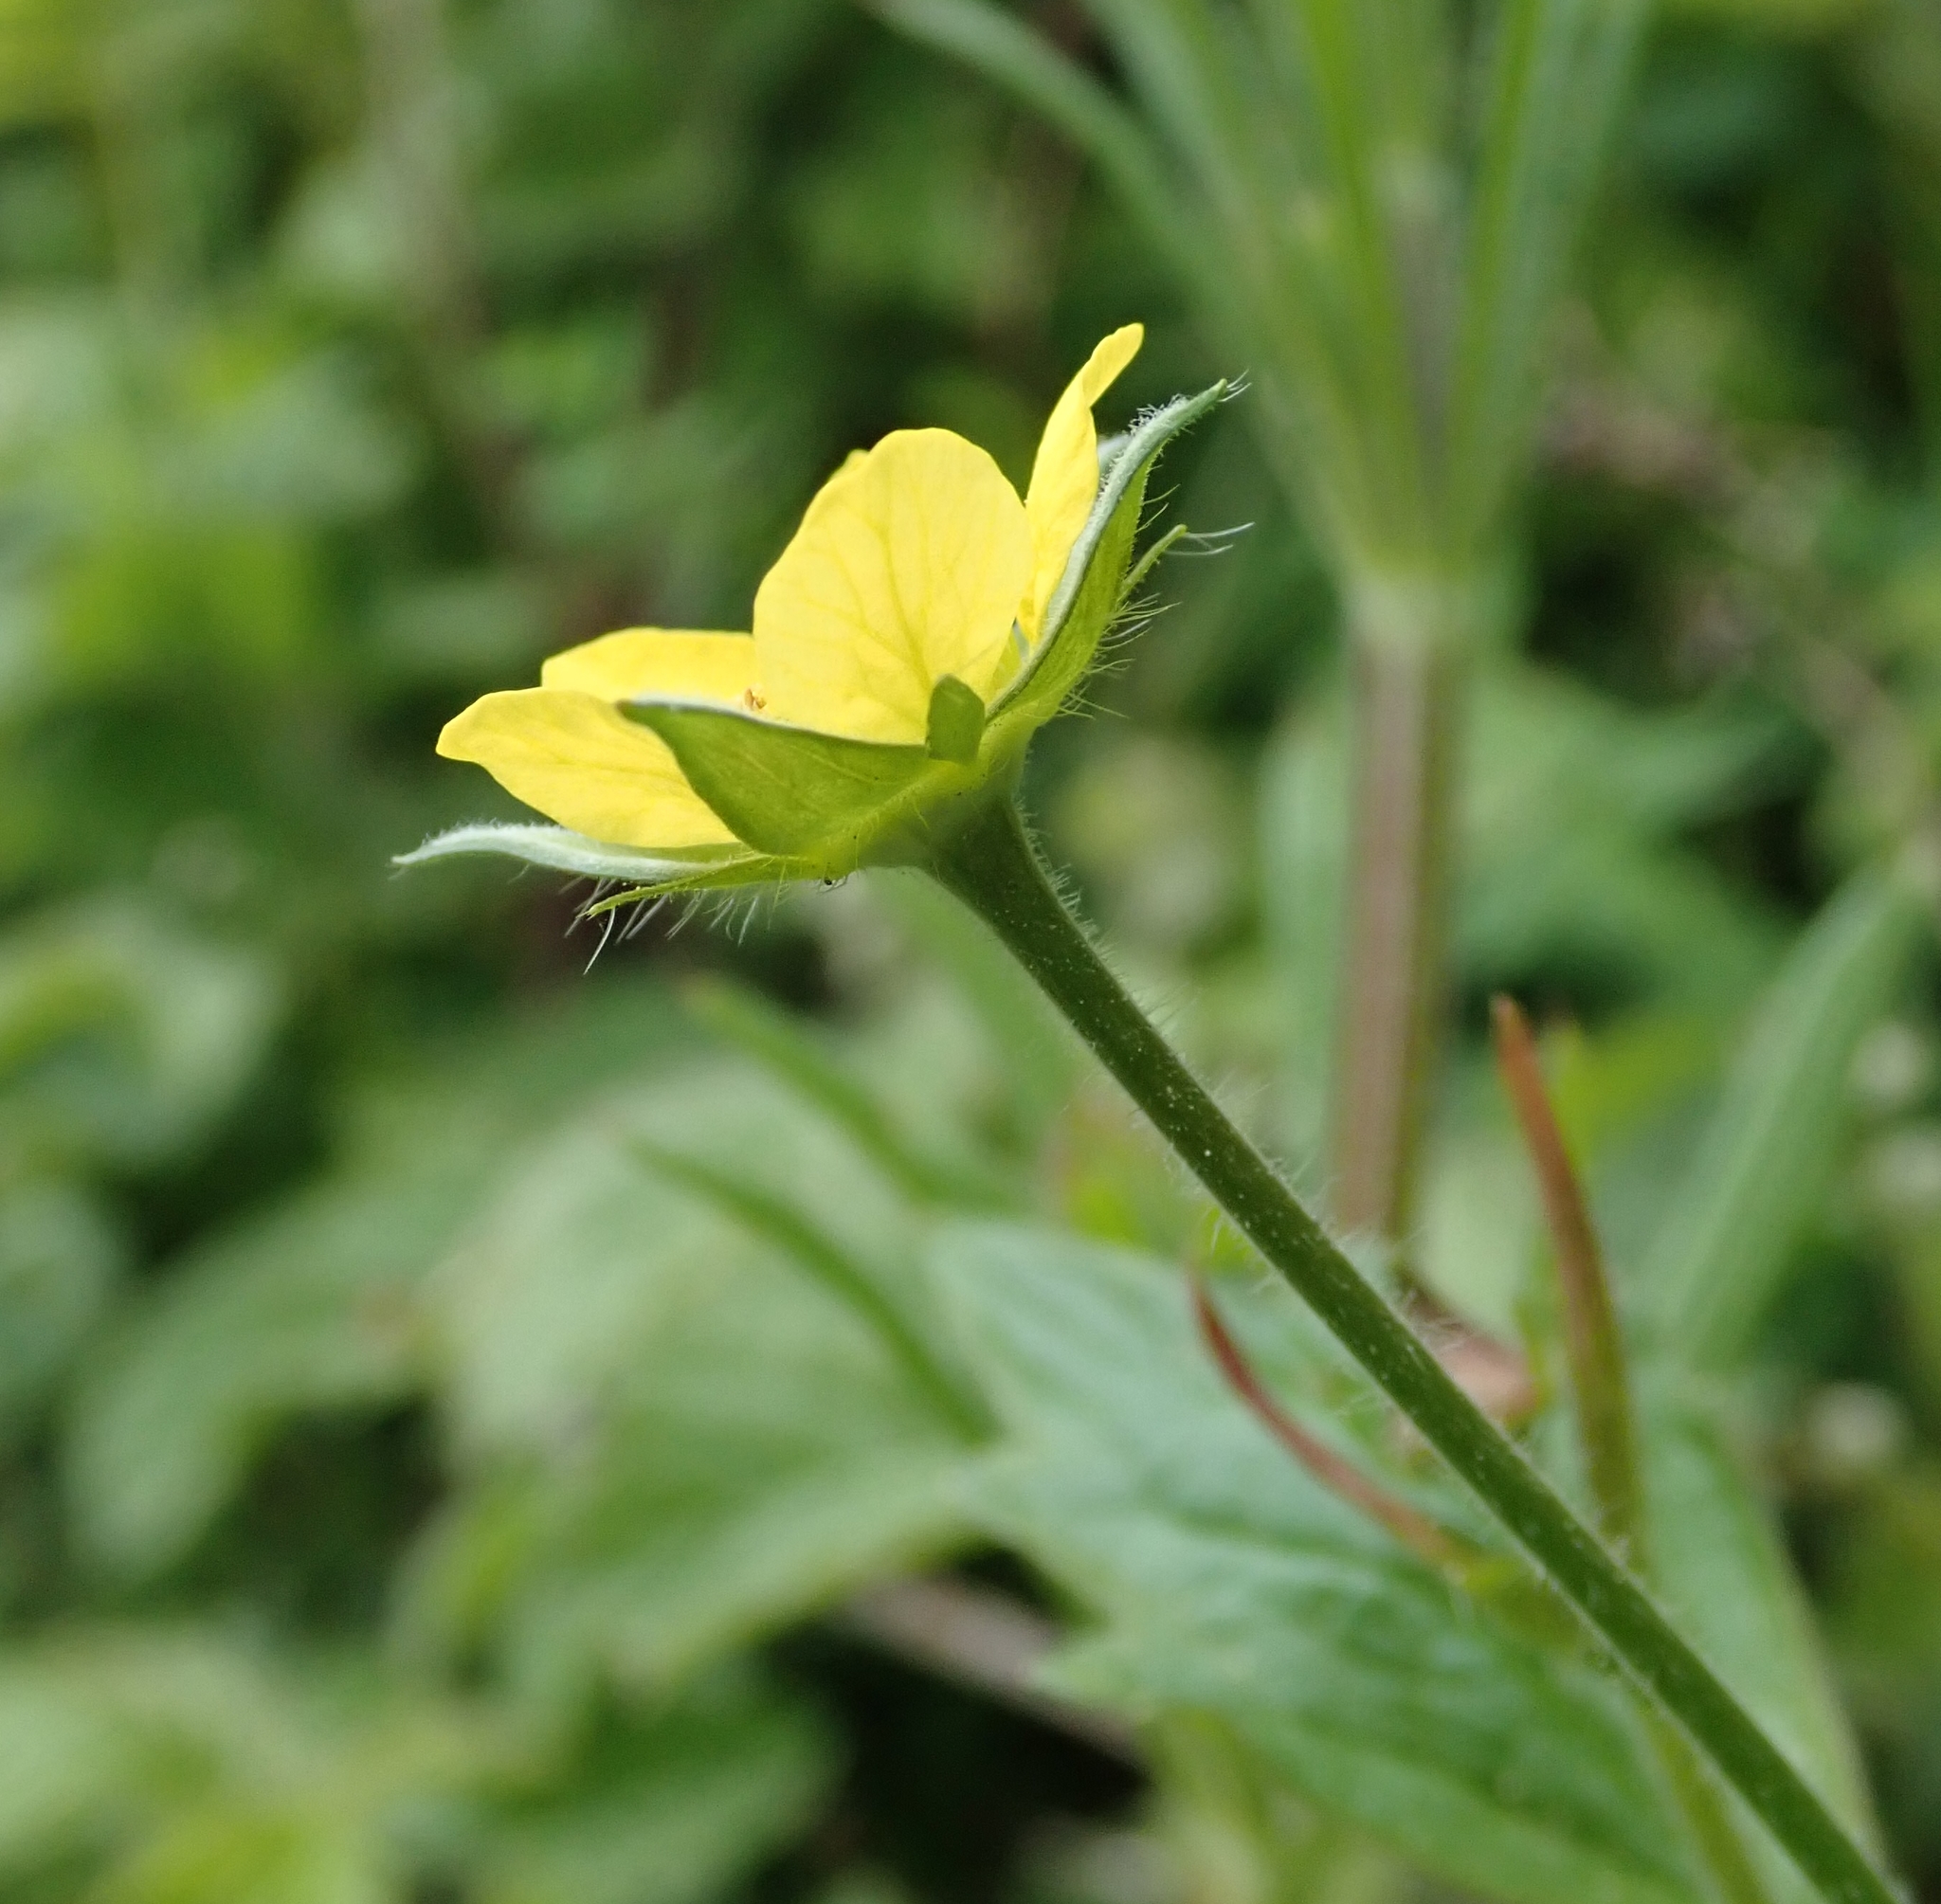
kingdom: Plantae
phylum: Tracheophyta
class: Magnoliopsida
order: Rosales
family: Rosaceae
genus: Geum
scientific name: Geum urbanum
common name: Wood avens
